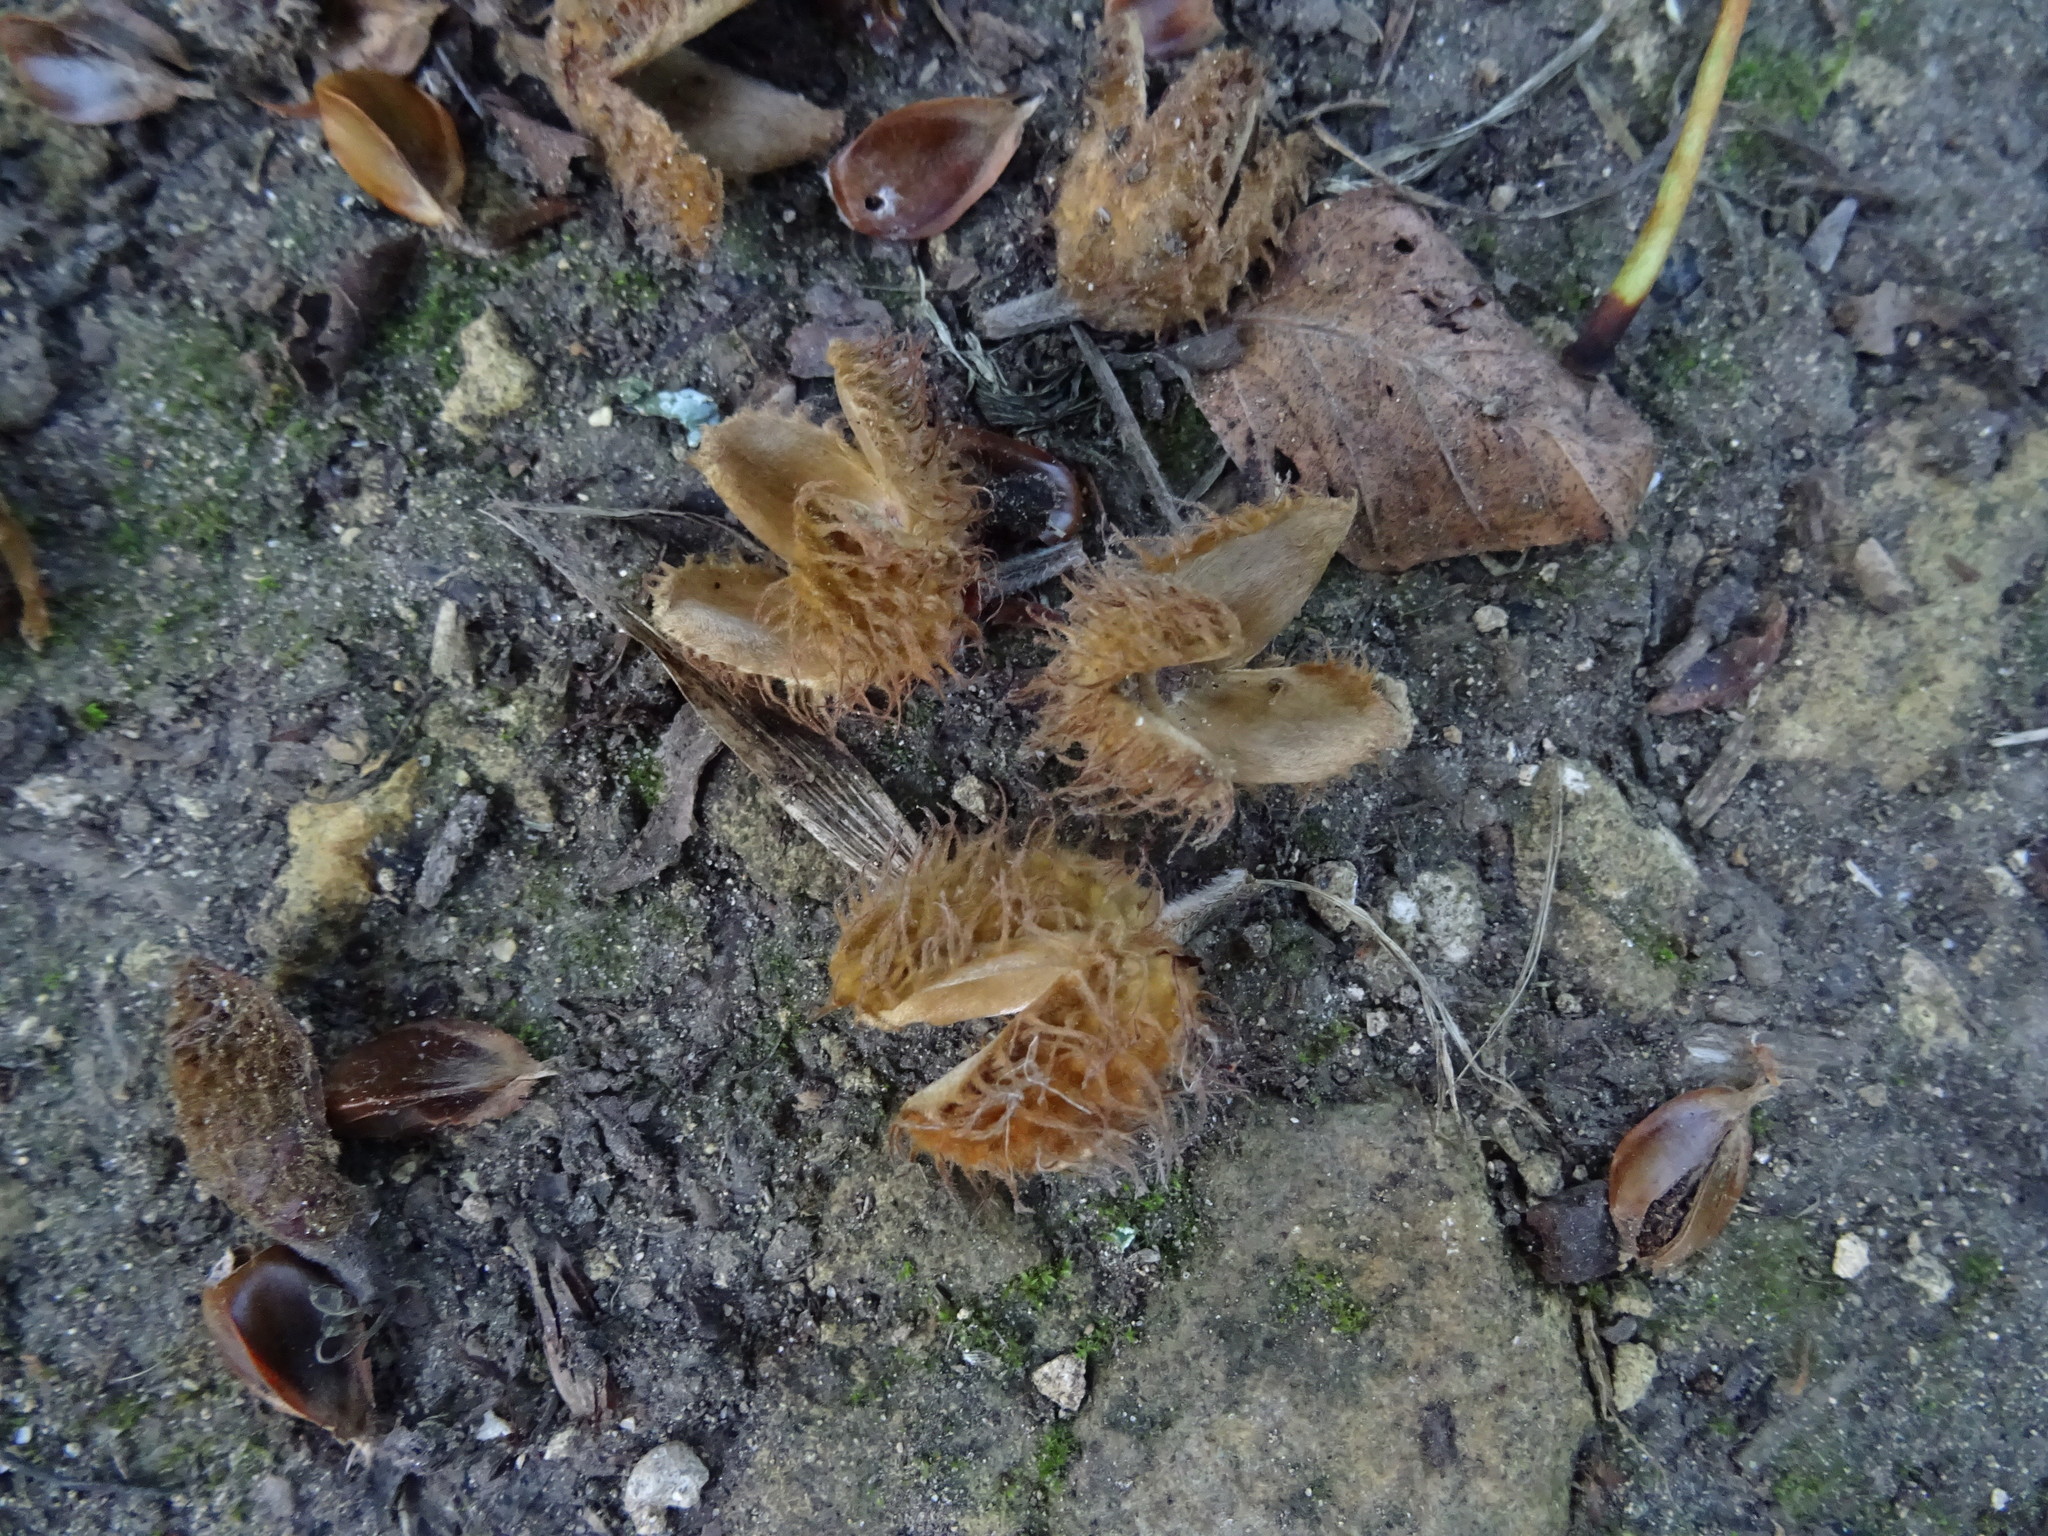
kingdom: Plantae
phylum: Tracheophyta
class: Magnoliopsida
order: Fagales
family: Fagaceae
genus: Fagus
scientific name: Fagus sylvatica
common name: Beech
